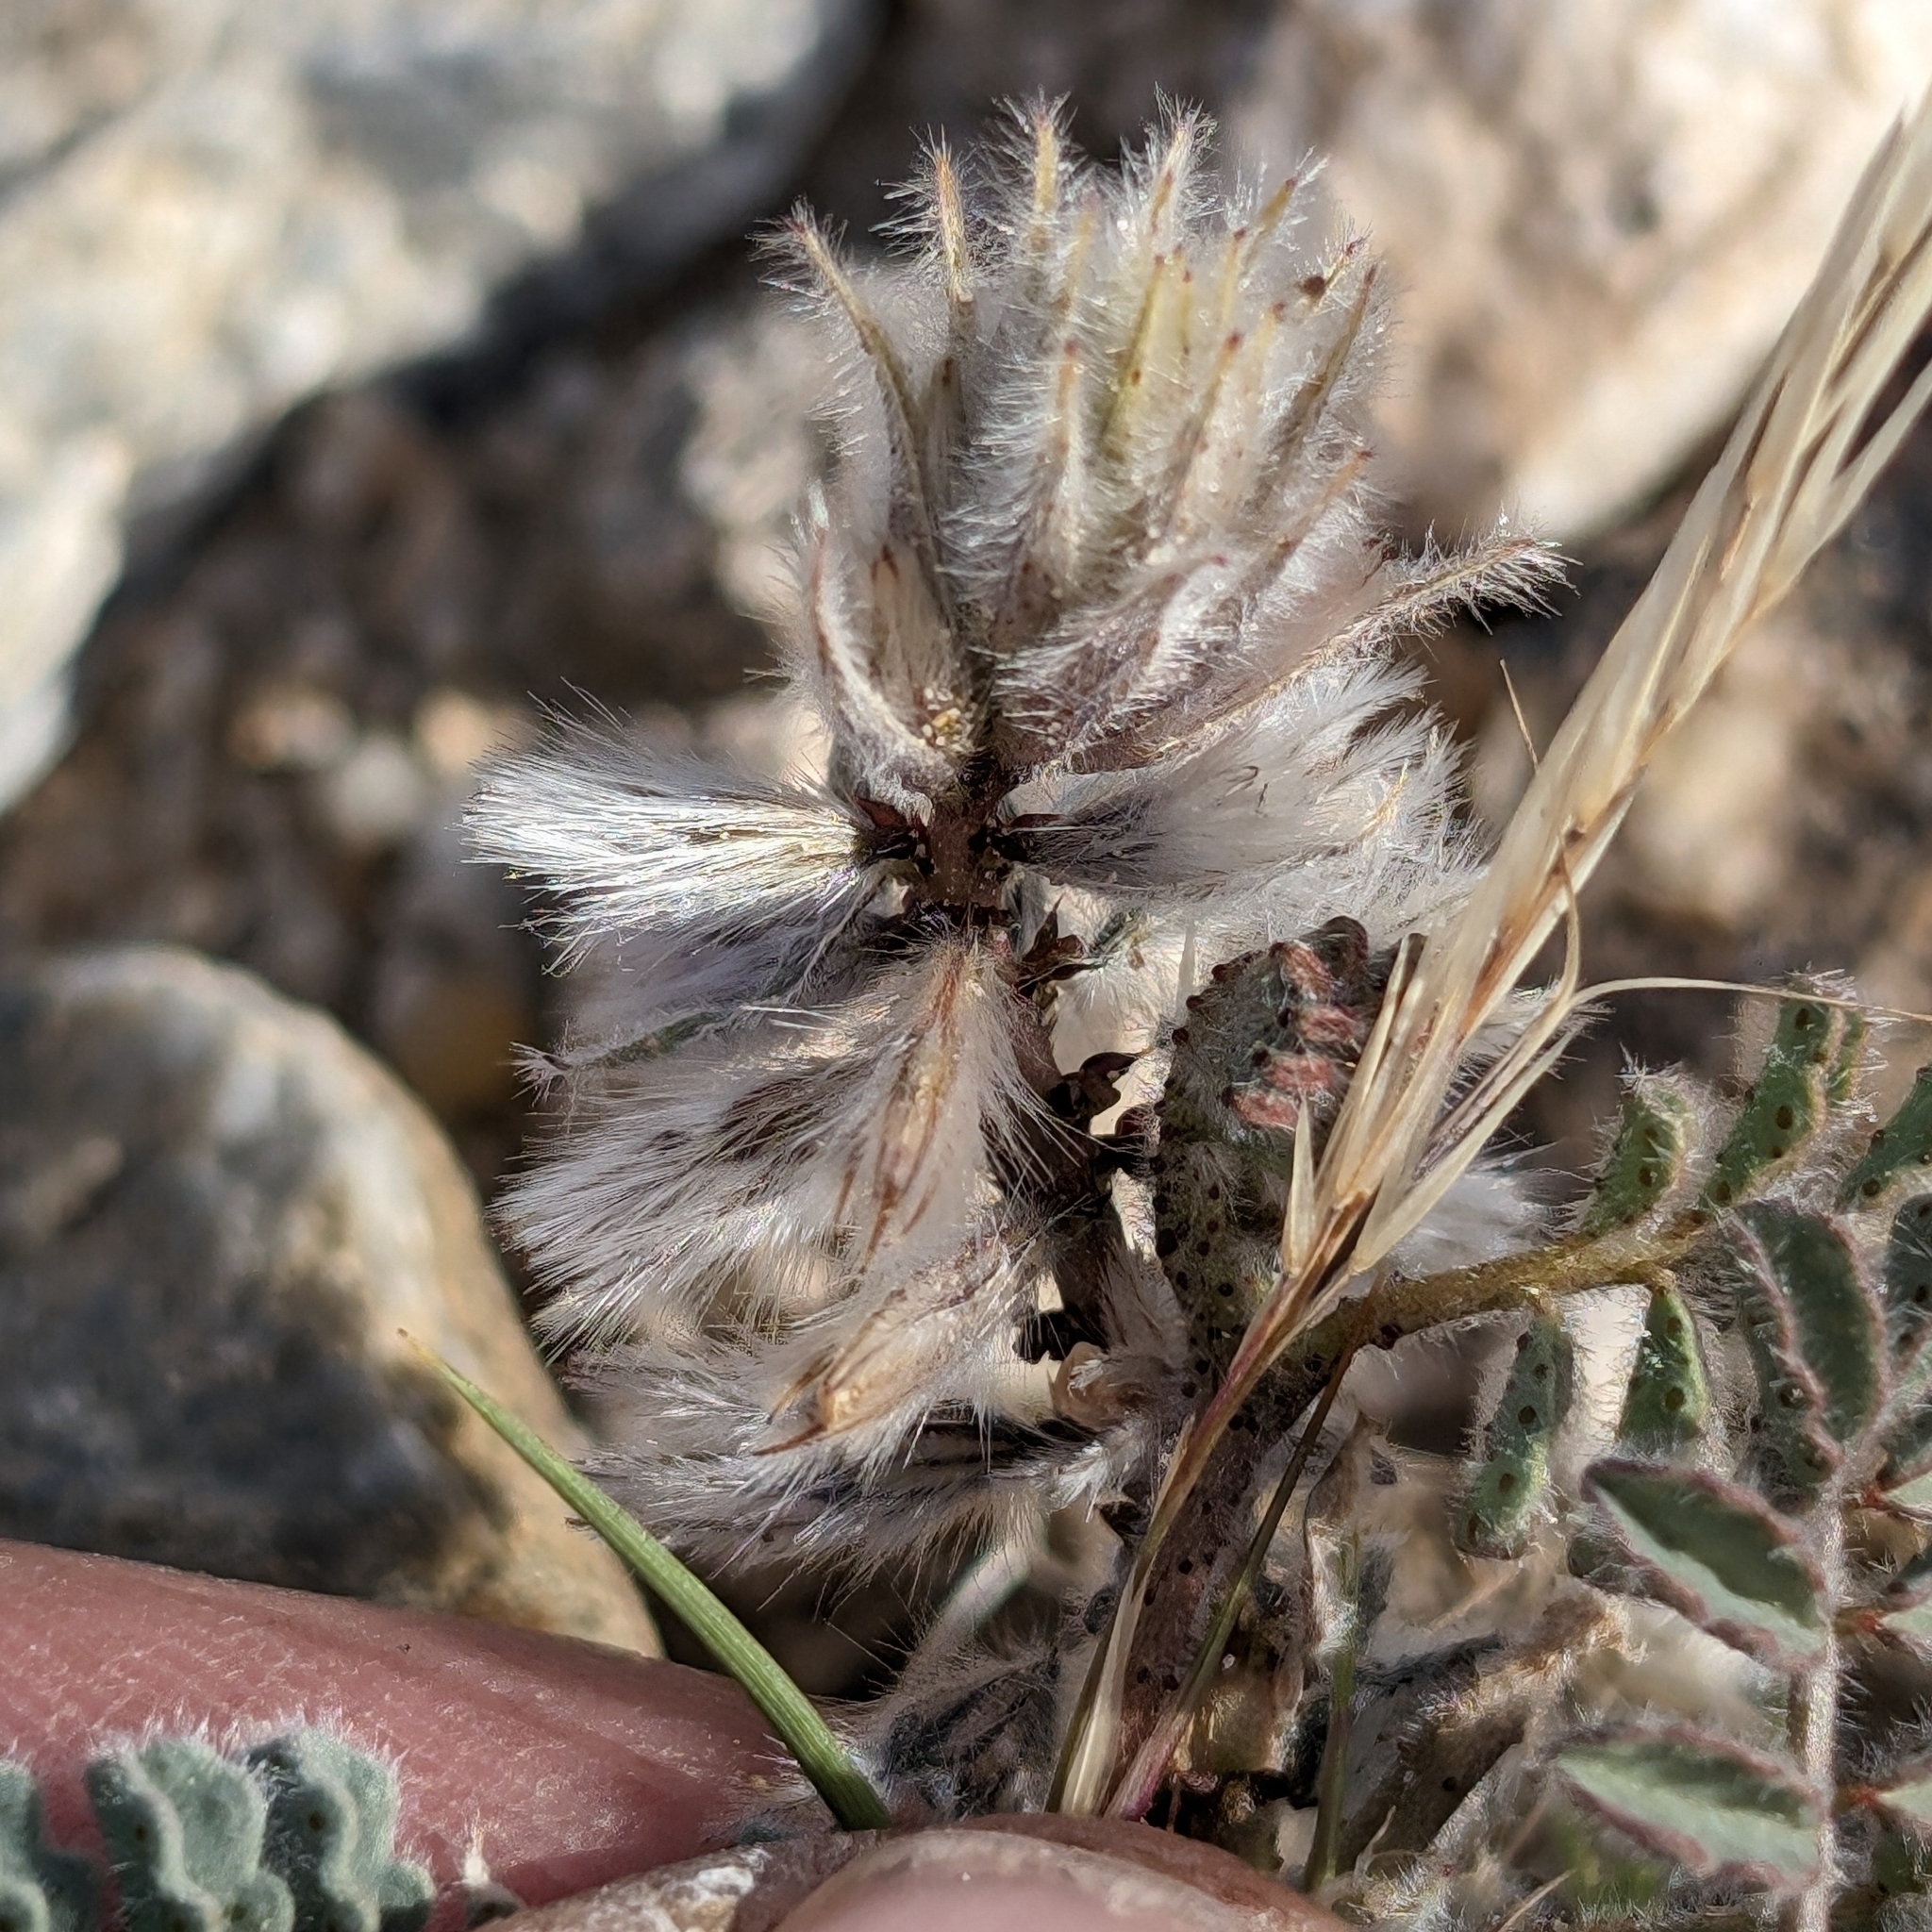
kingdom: Plantae
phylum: Tracheophyta
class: Magnoliopsida
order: Fabales
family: Fabaceae
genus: Dalea
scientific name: Dalea mollissima
